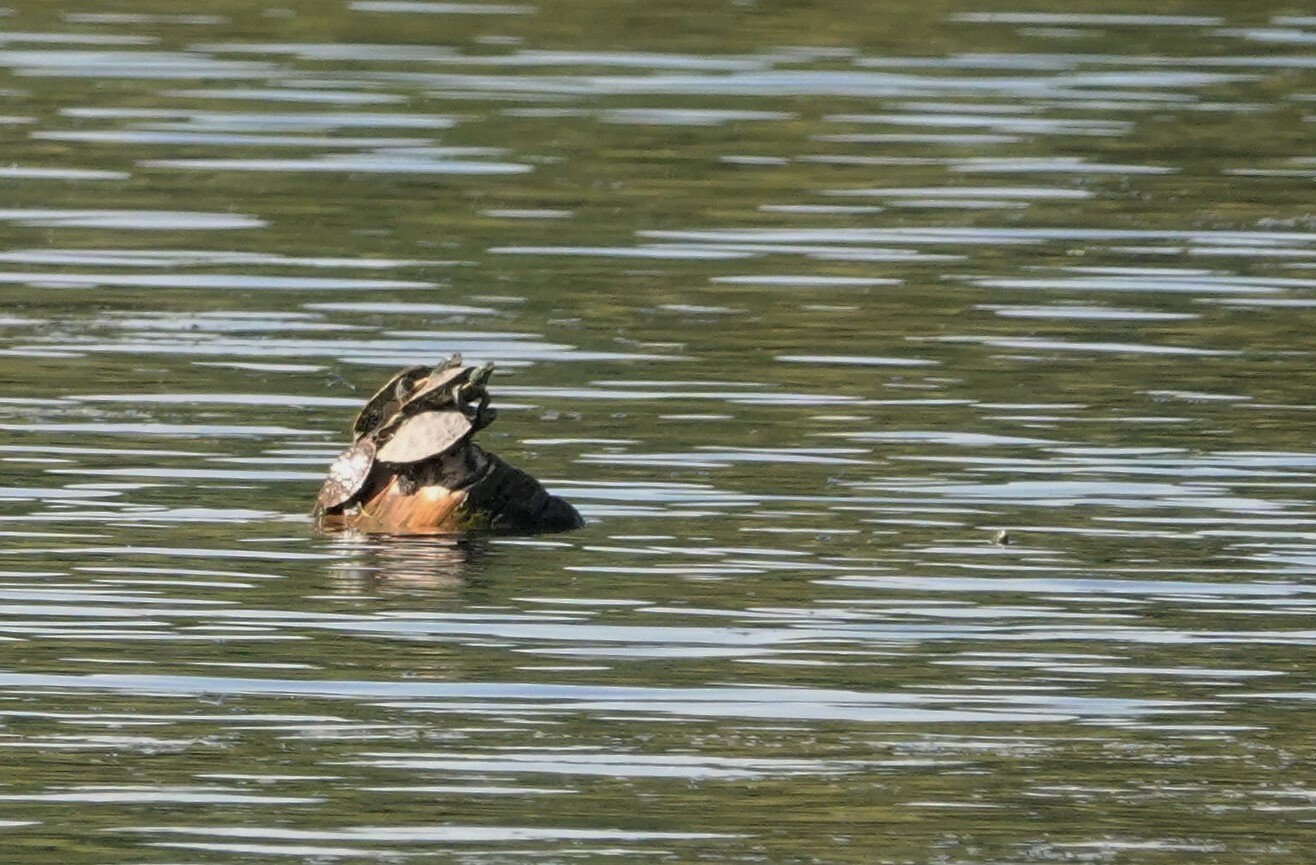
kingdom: Animalia
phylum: Chordata
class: Testudines
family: Emydidae
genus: Graptemys
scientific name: Graptemys geographica
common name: Common map turtle
